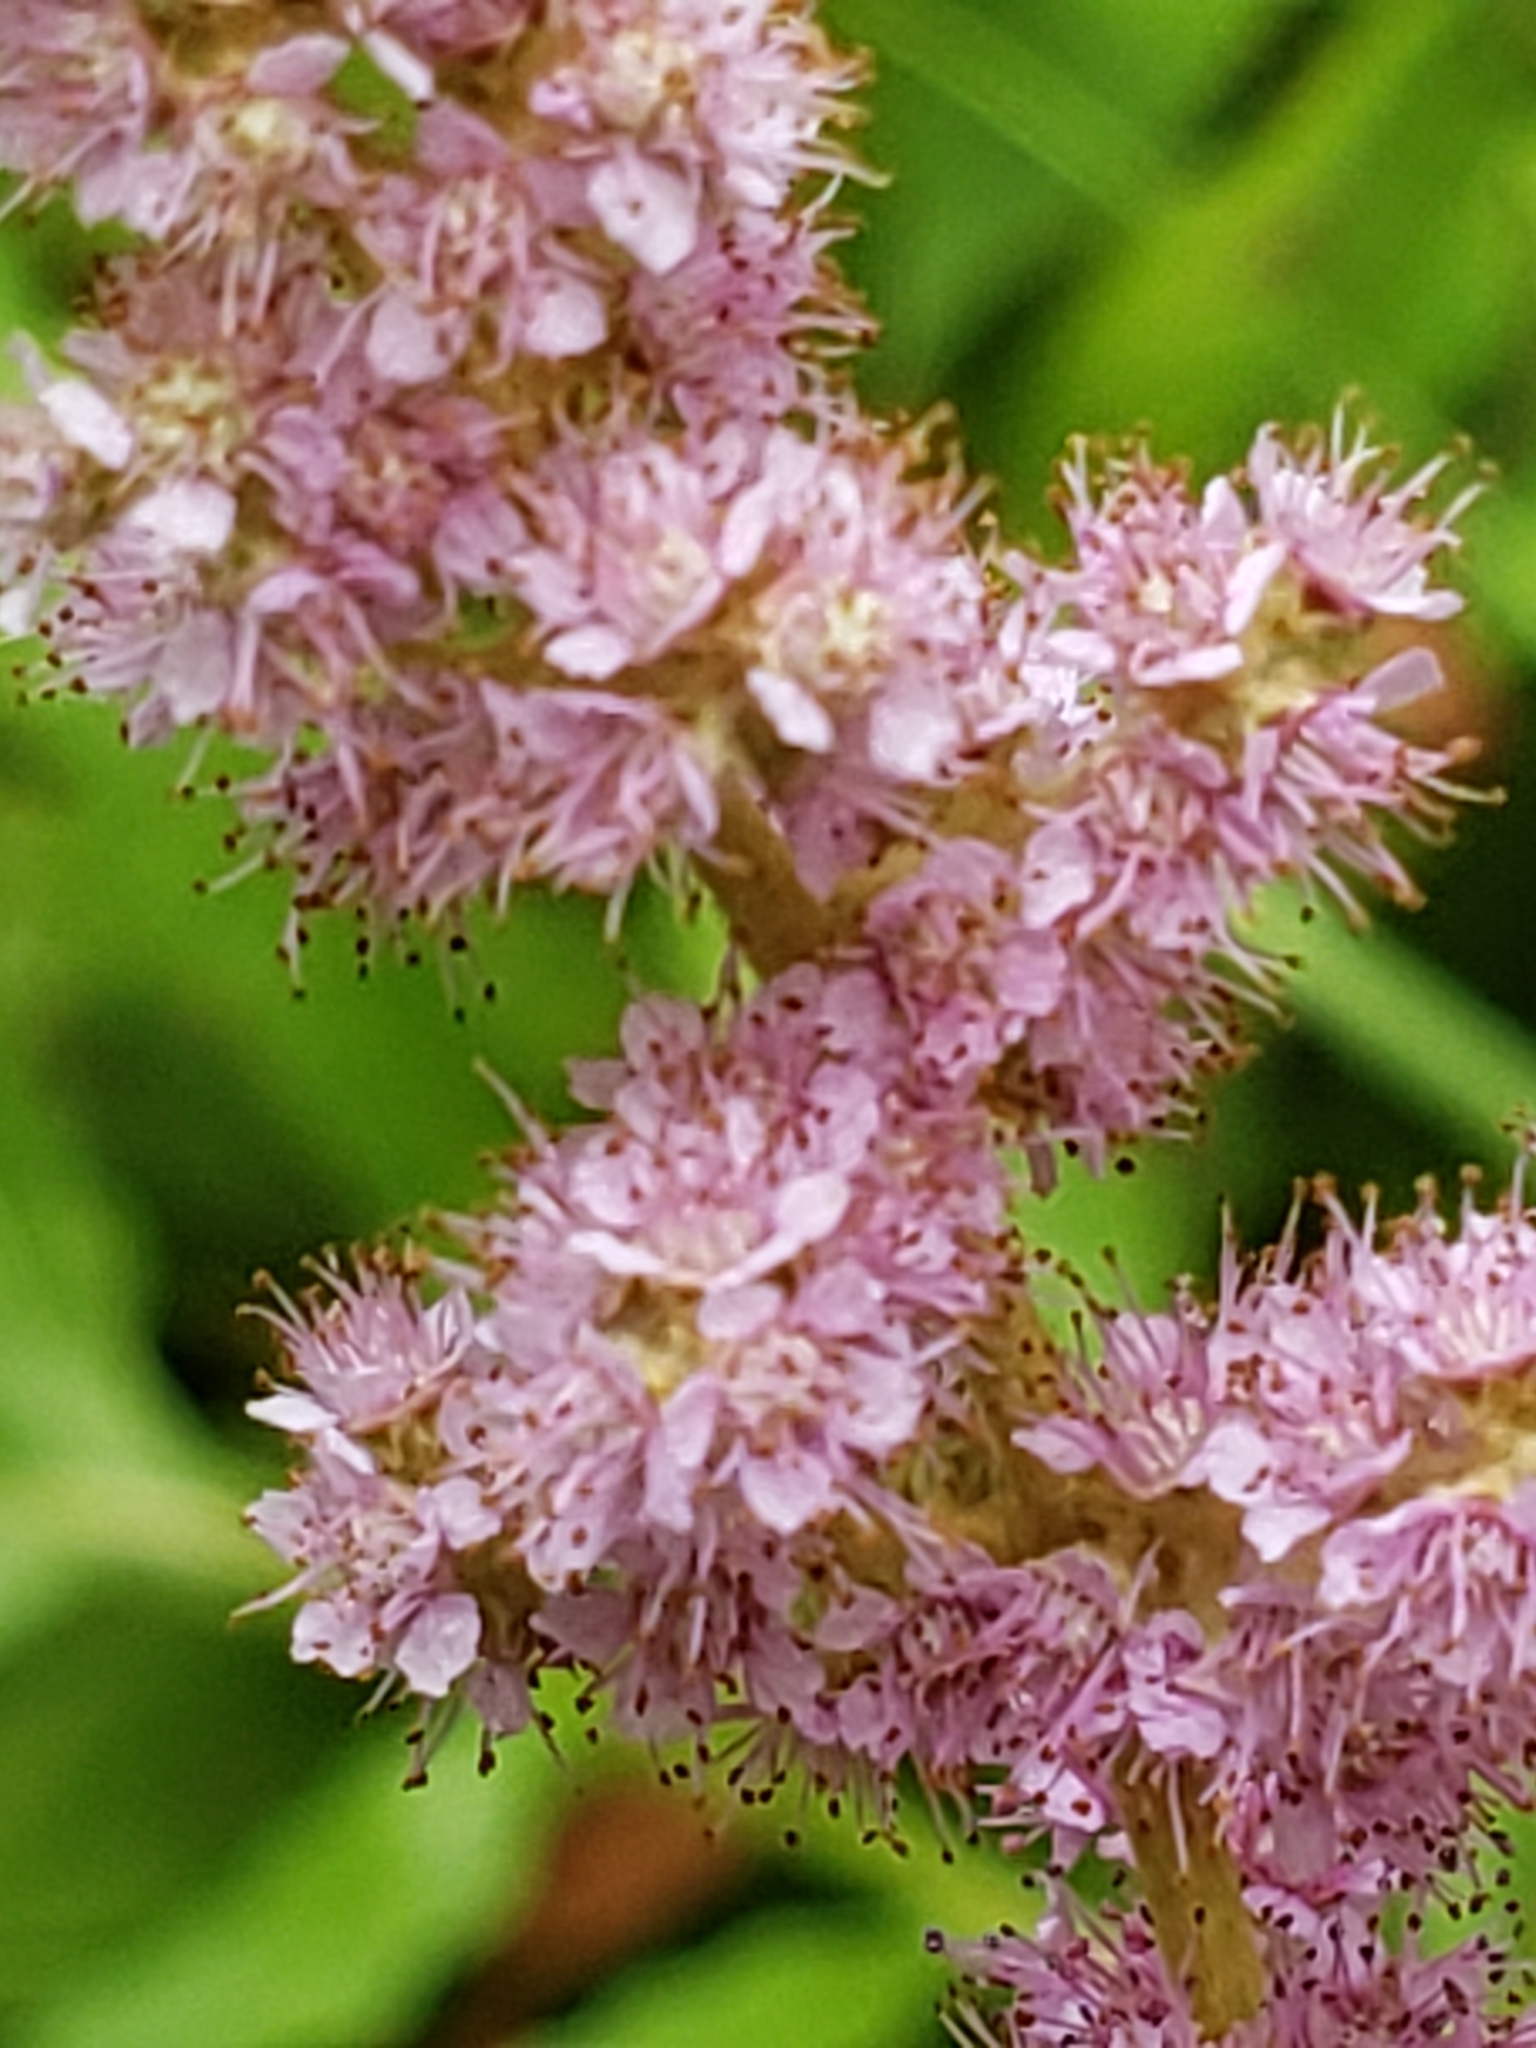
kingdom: Plantae
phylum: Tracheophyta
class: Magnoliopsida
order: Rosales
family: Rosaceae
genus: Spiraea
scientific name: Spiraea tomentosa
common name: Hardhack
